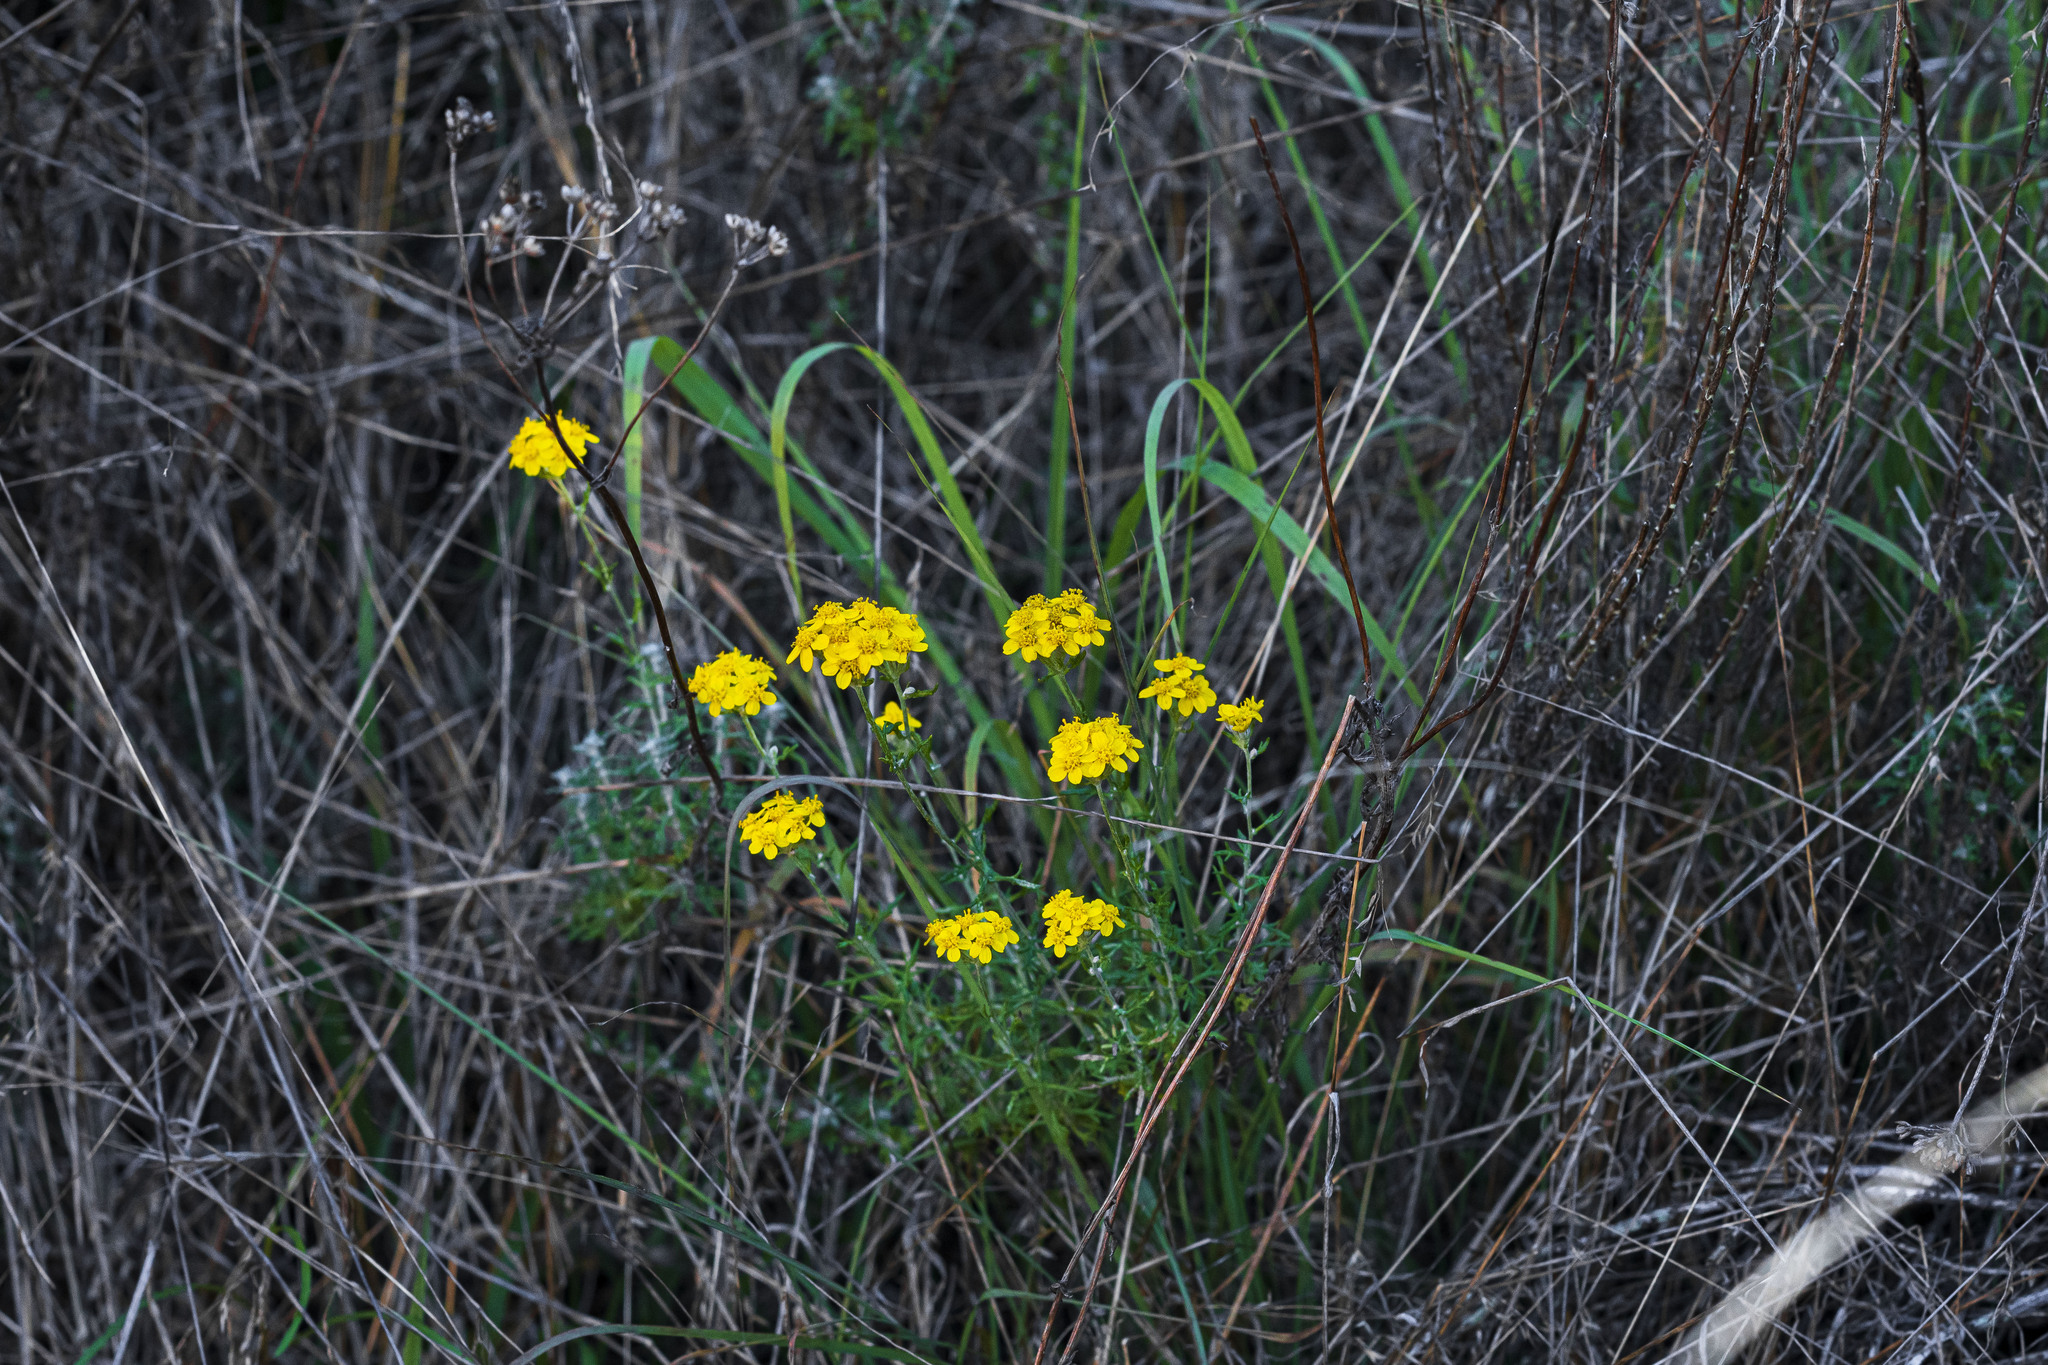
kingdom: Plantae
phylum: Tracheophyta
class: Magnoliopsida
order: Asterales
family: Asteraceae
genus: Eriophyllum
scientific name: Eriophyllum confertiflorum
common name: Golden-yarrow
